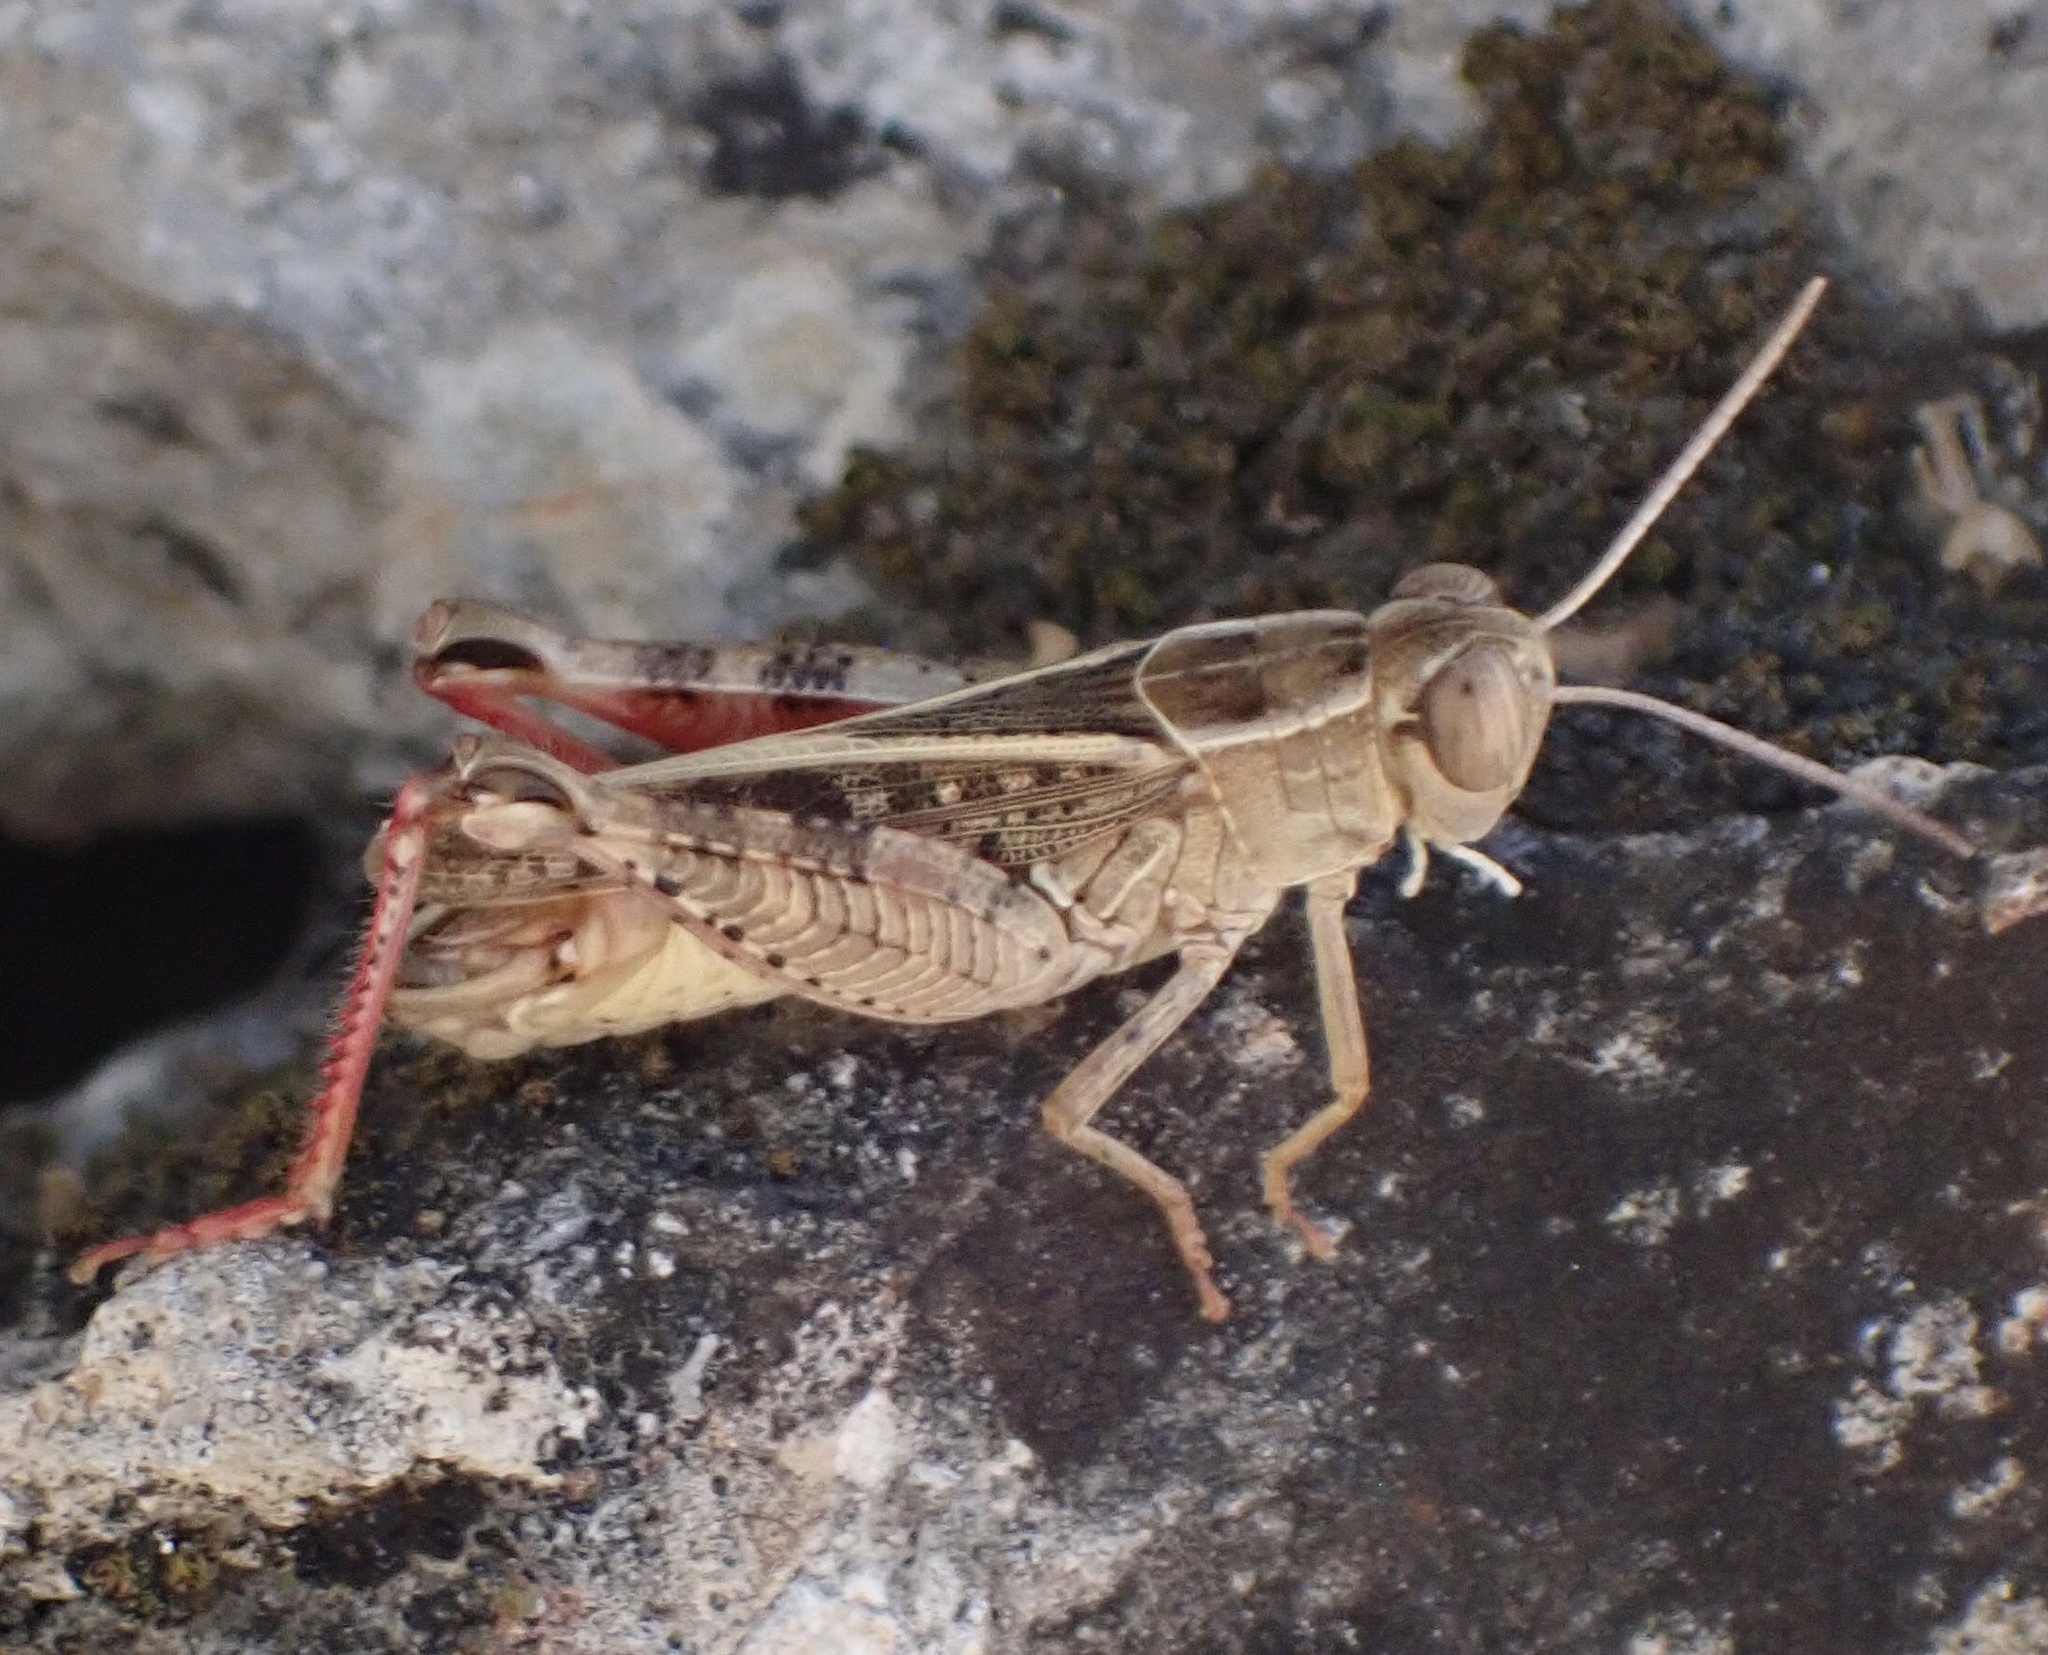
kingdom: Animalia
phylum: Arthropoda
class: Insecta
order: Orthoptera
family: Acrididae
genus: Calliptamus
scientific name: Calliptamus italicus
